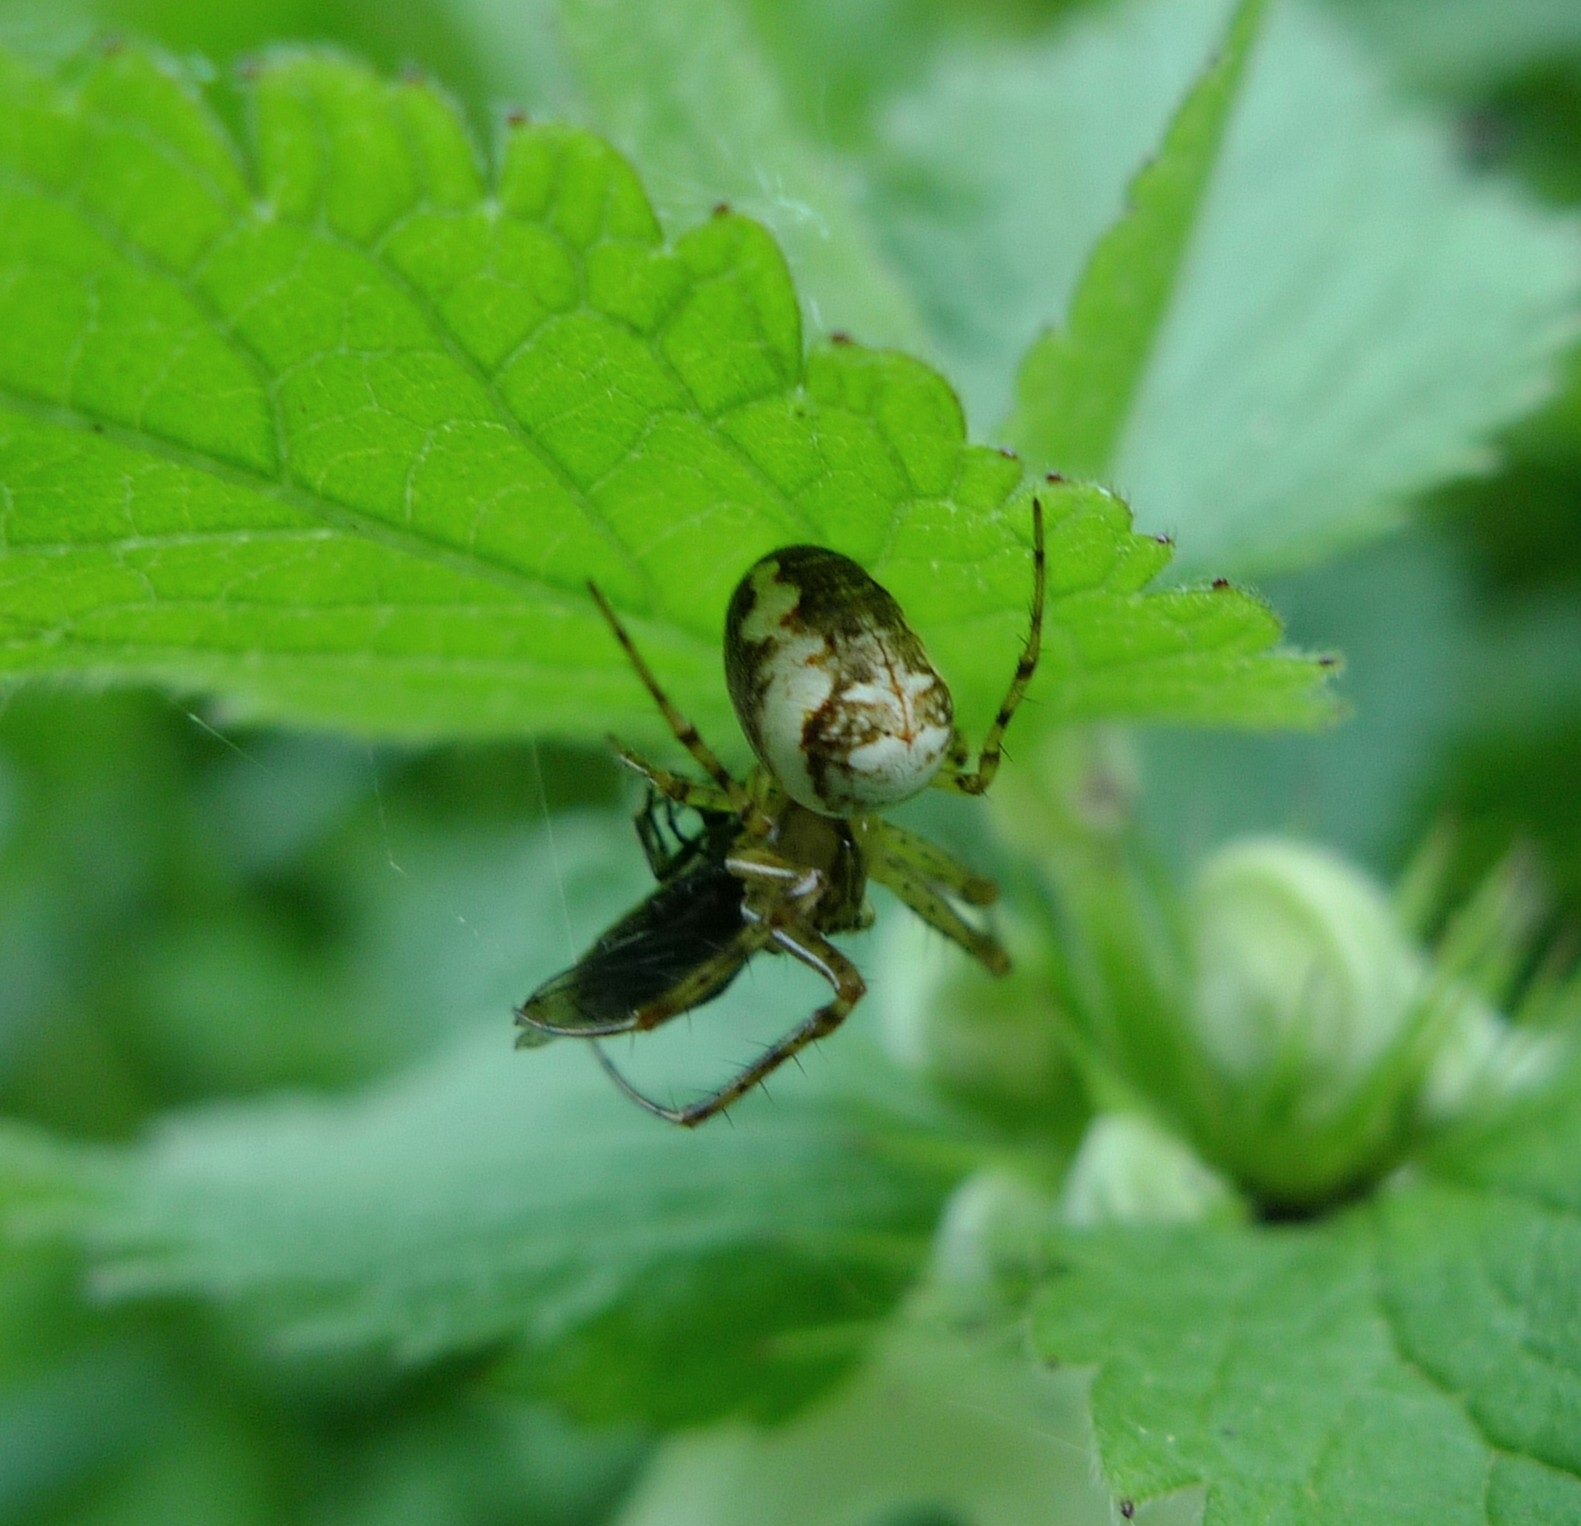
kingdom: Animalia
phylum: Arthropoda
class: Arachnida
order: Araneae
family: Tetragnathidae
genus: Metellina
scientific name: Metellina mengei
